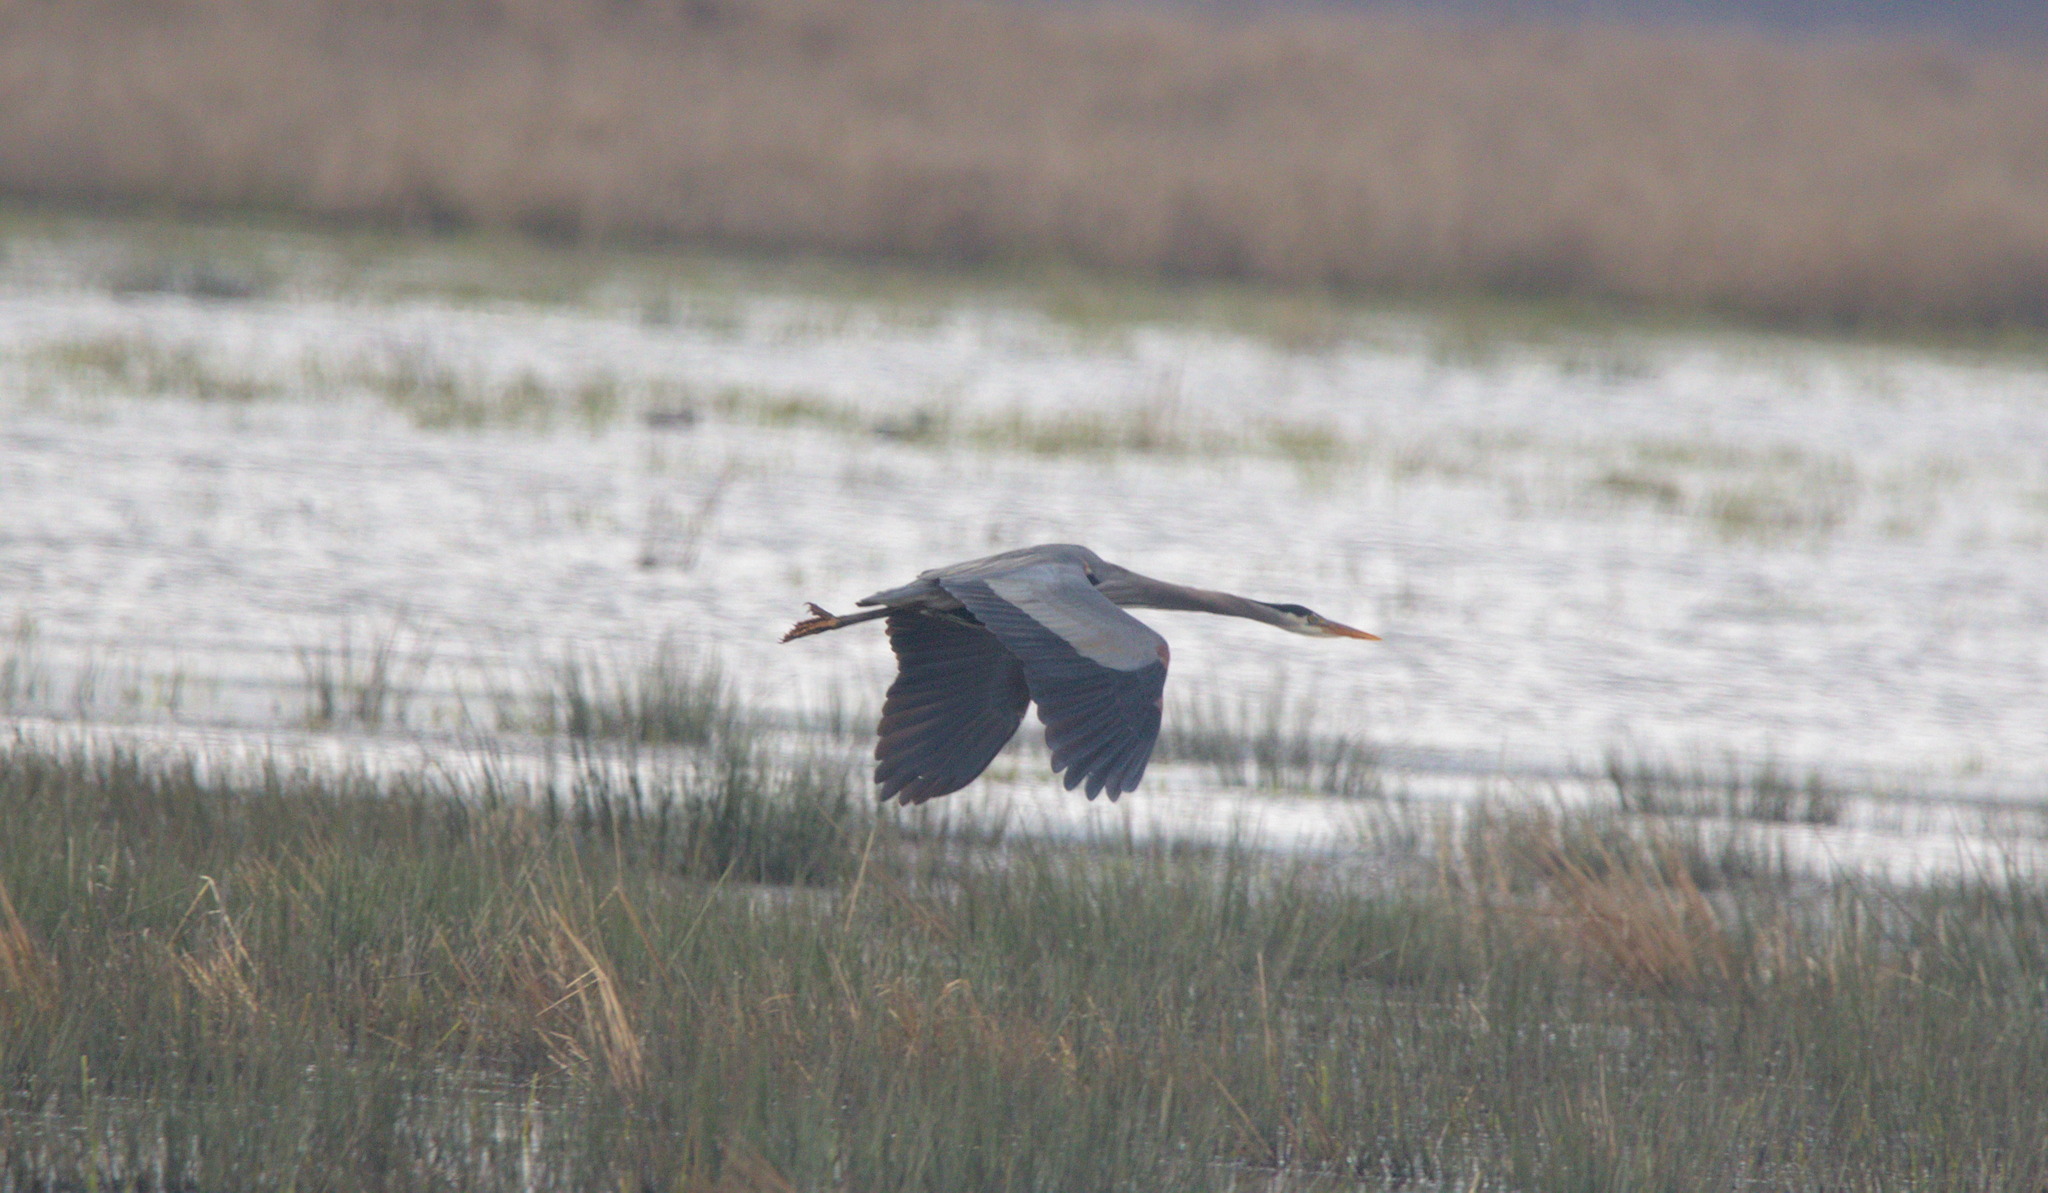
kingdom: Animalia
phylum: Chordata
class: Aves
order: Pelecaniformes
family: Ardeidae
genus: Ardea
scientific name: Ardea herodias
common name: Great blue heron
